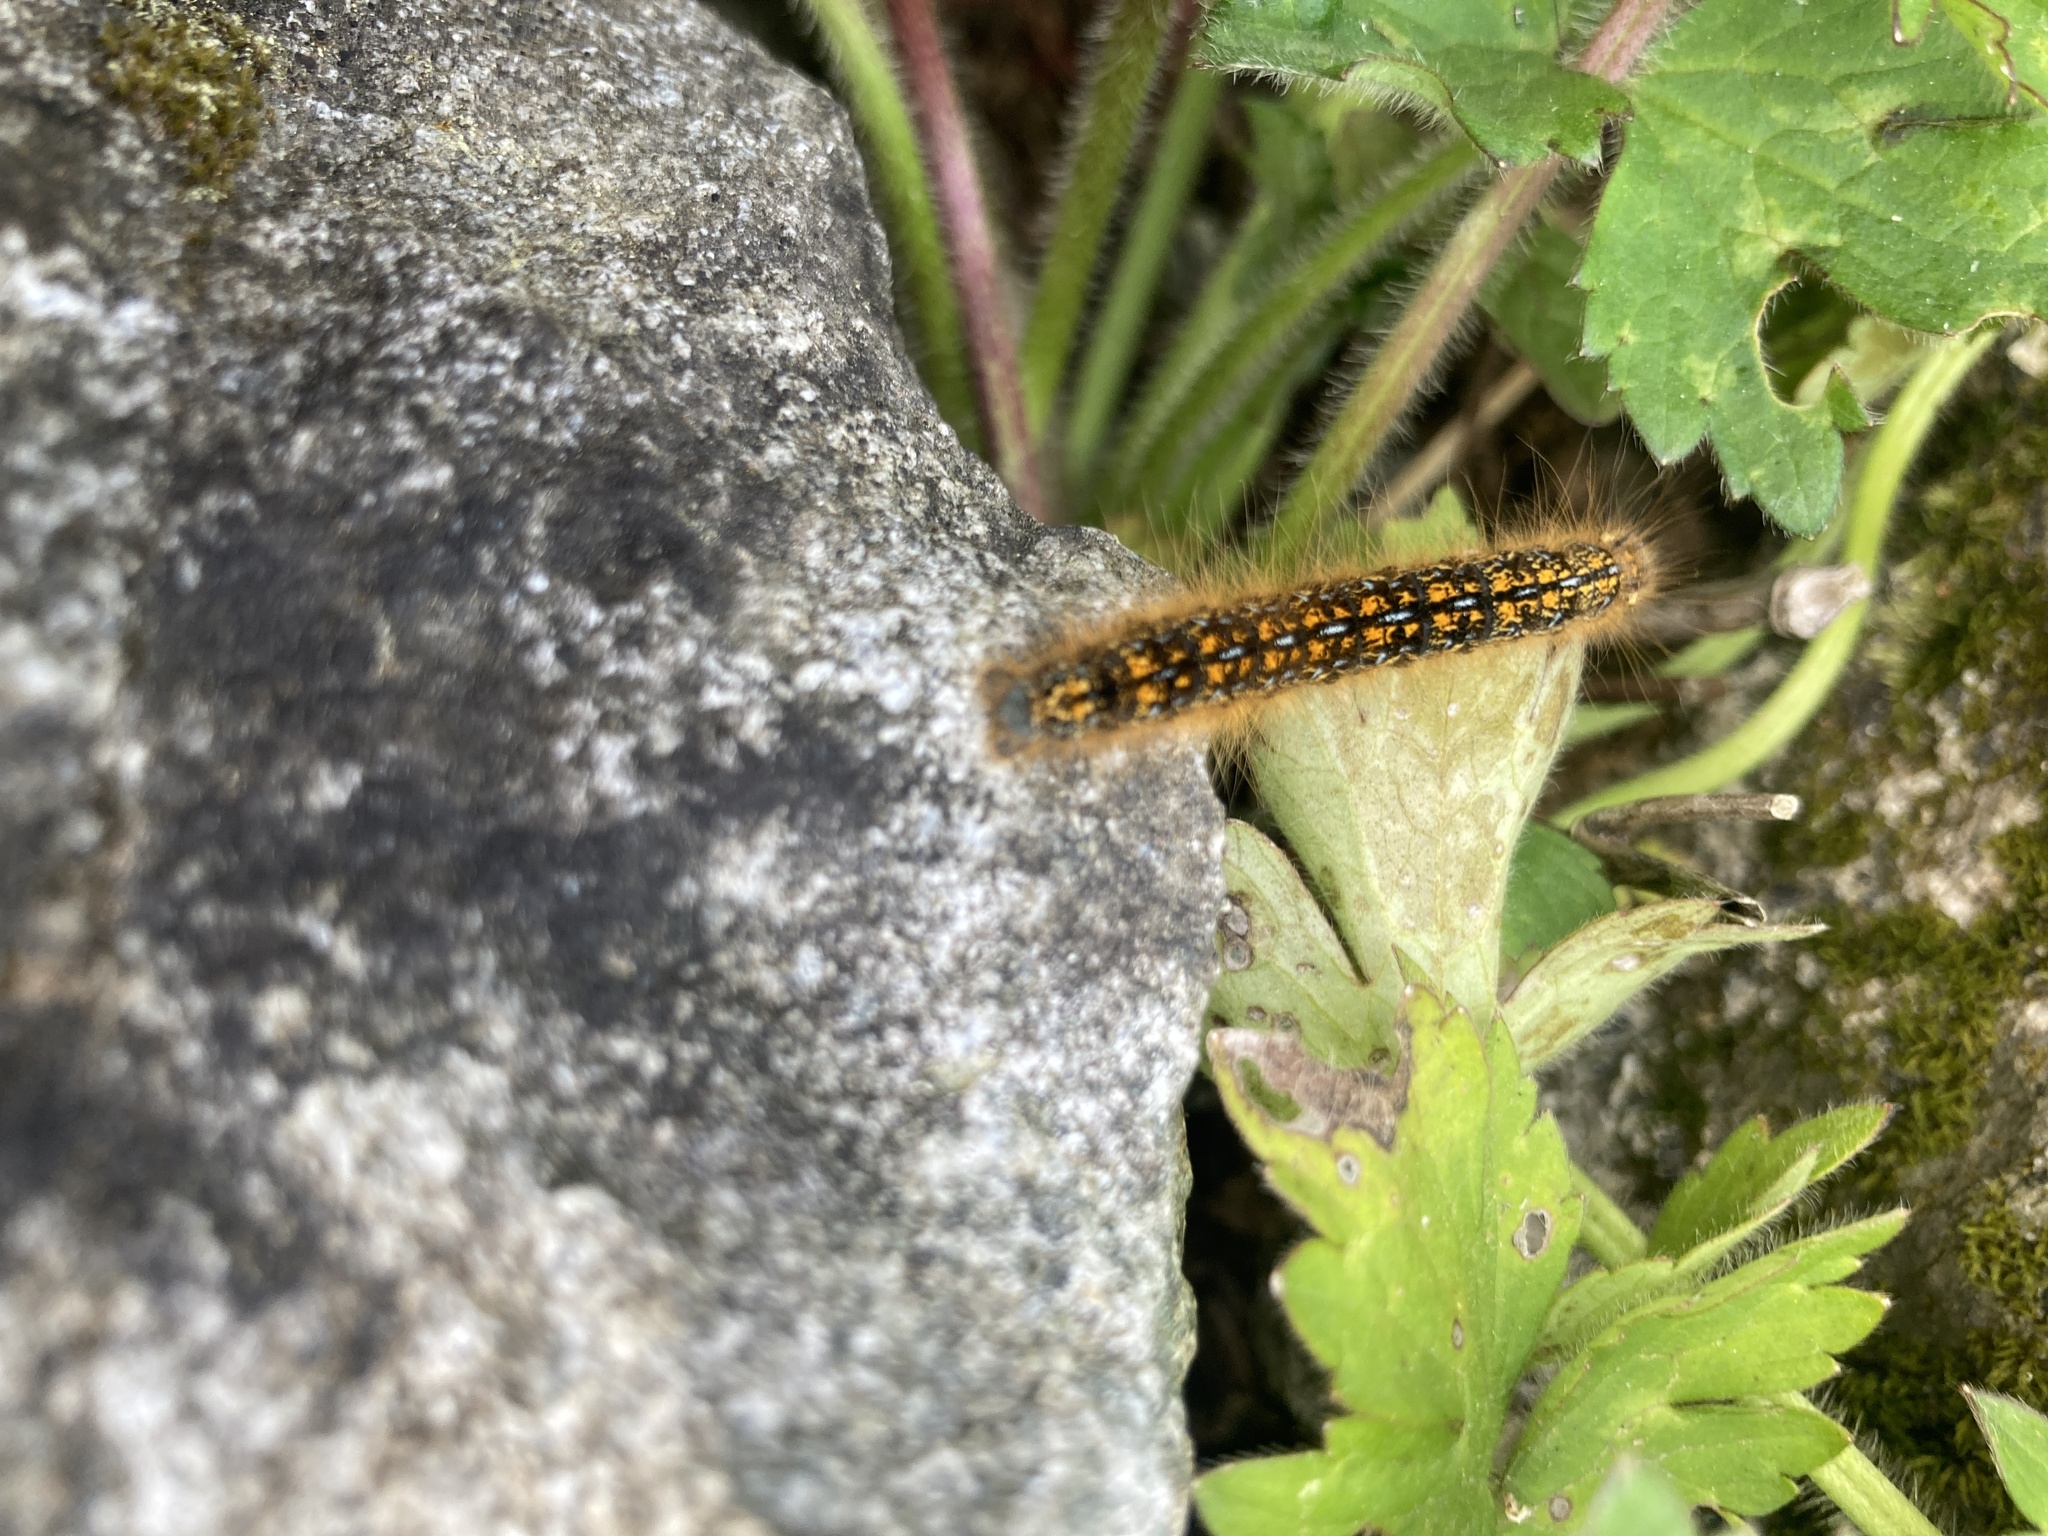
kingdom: Animalia
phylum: Arthropoda
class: Insecta
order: Lepidoptera
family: Lasiocampidae
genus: Malacosoma
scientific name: Malacosoma californica
